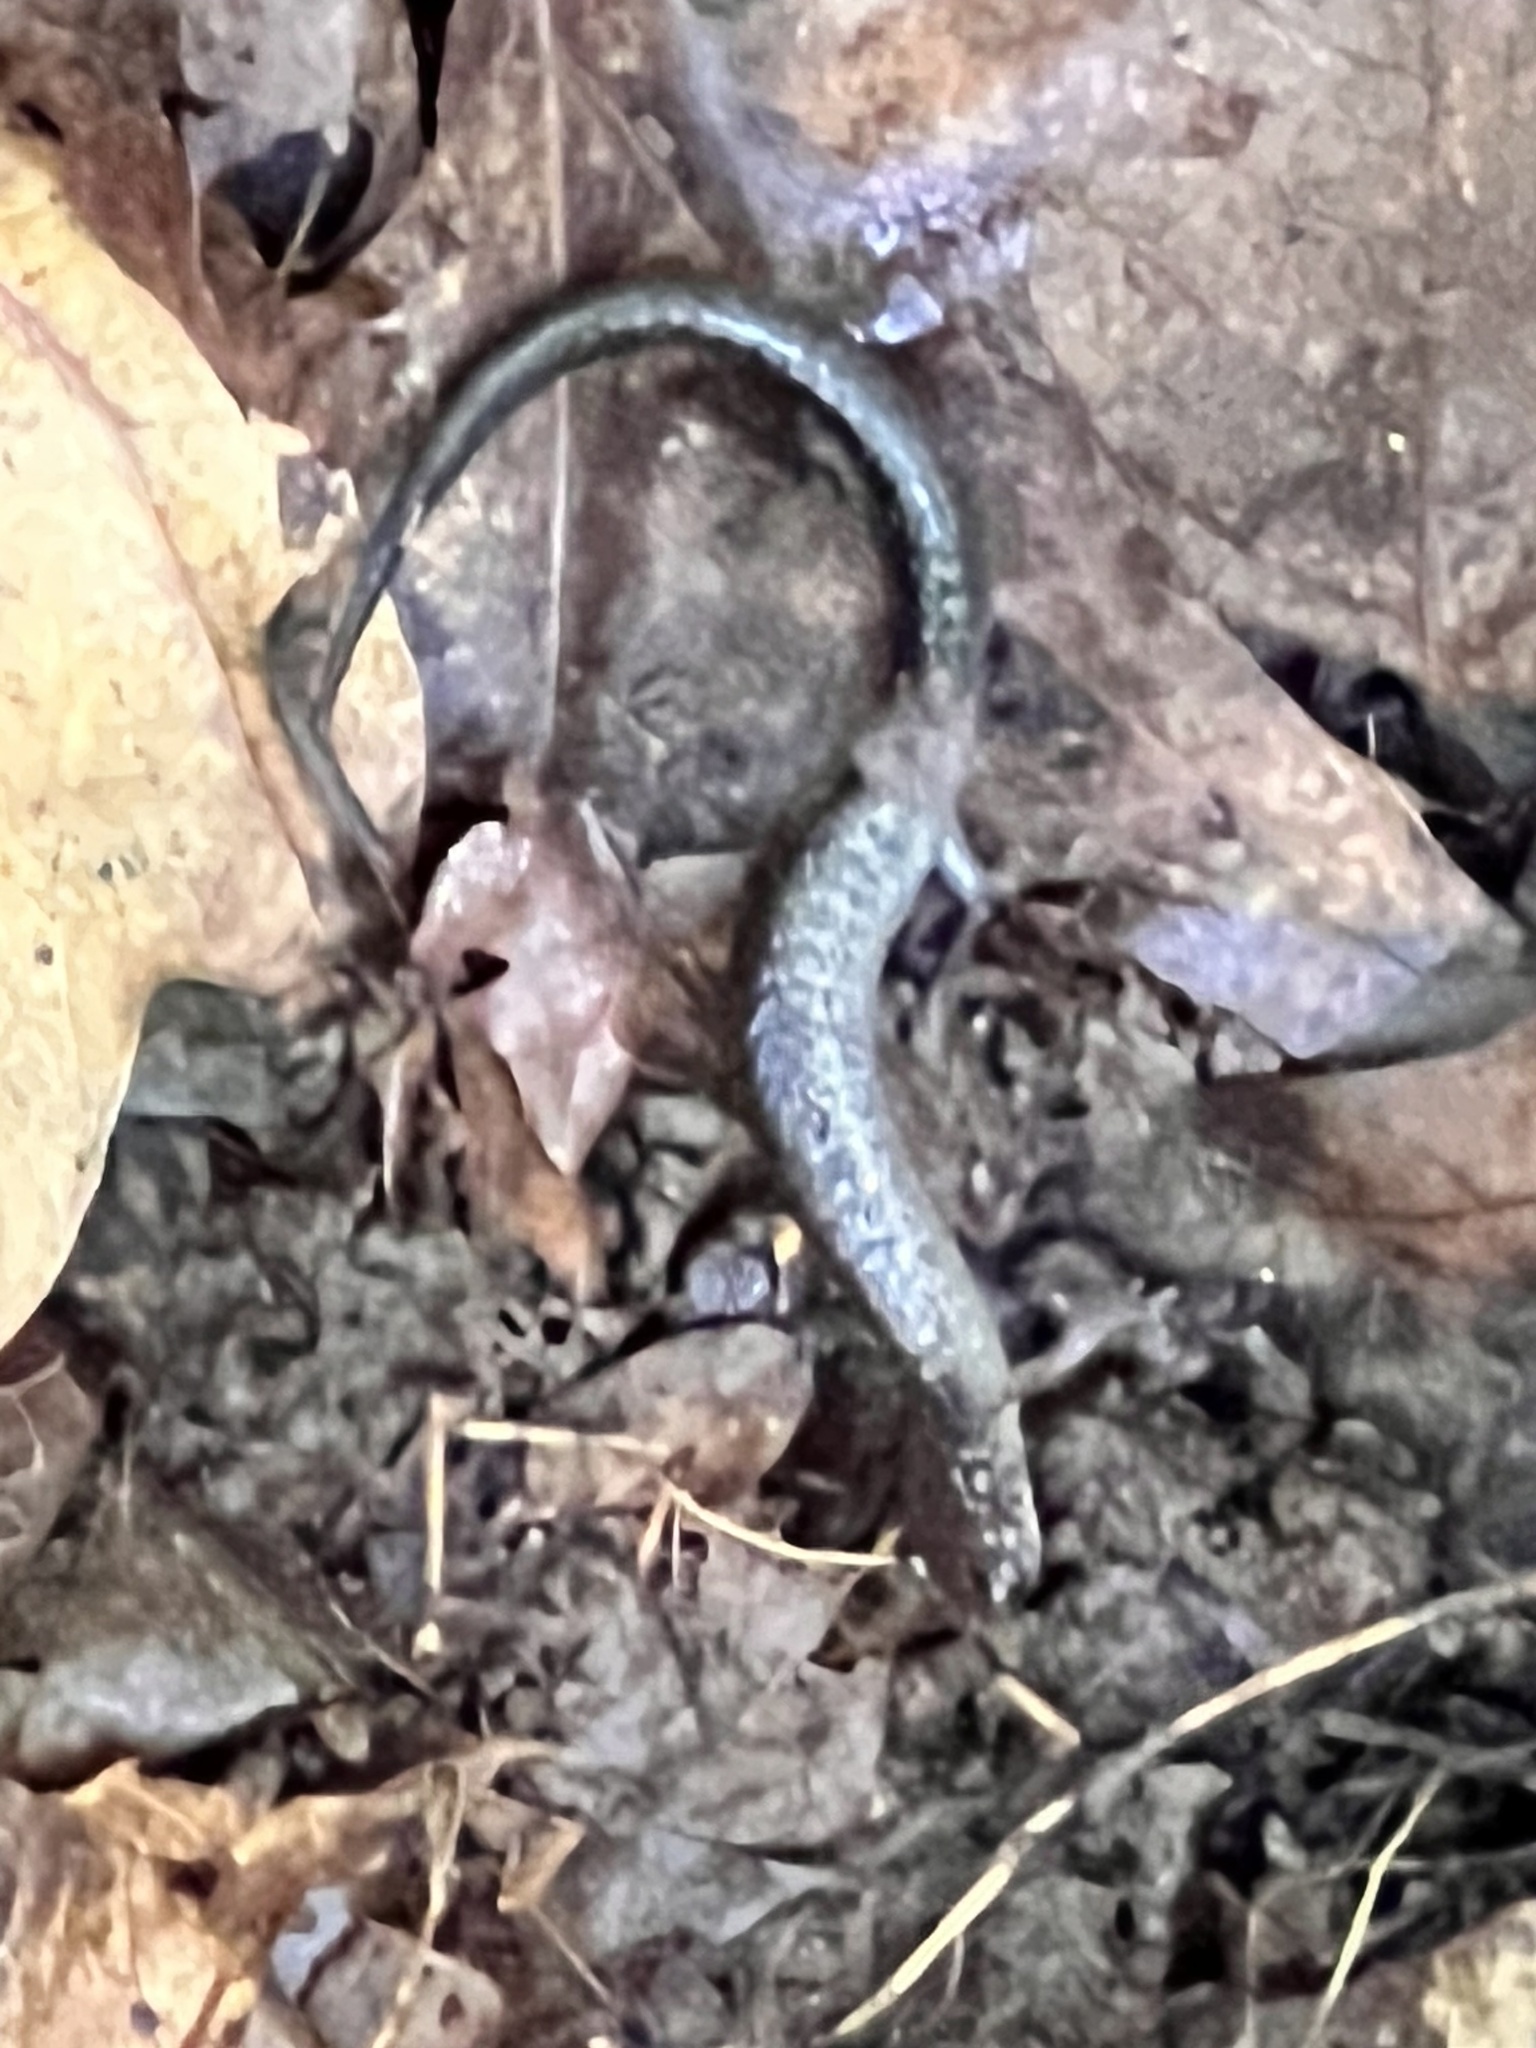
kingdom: Animalia
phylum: Chordata
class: Amphibia
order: Caudata
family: Plethodontidae
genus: Plethodon
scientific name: Plethodon cinereus
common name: Redback salamander
